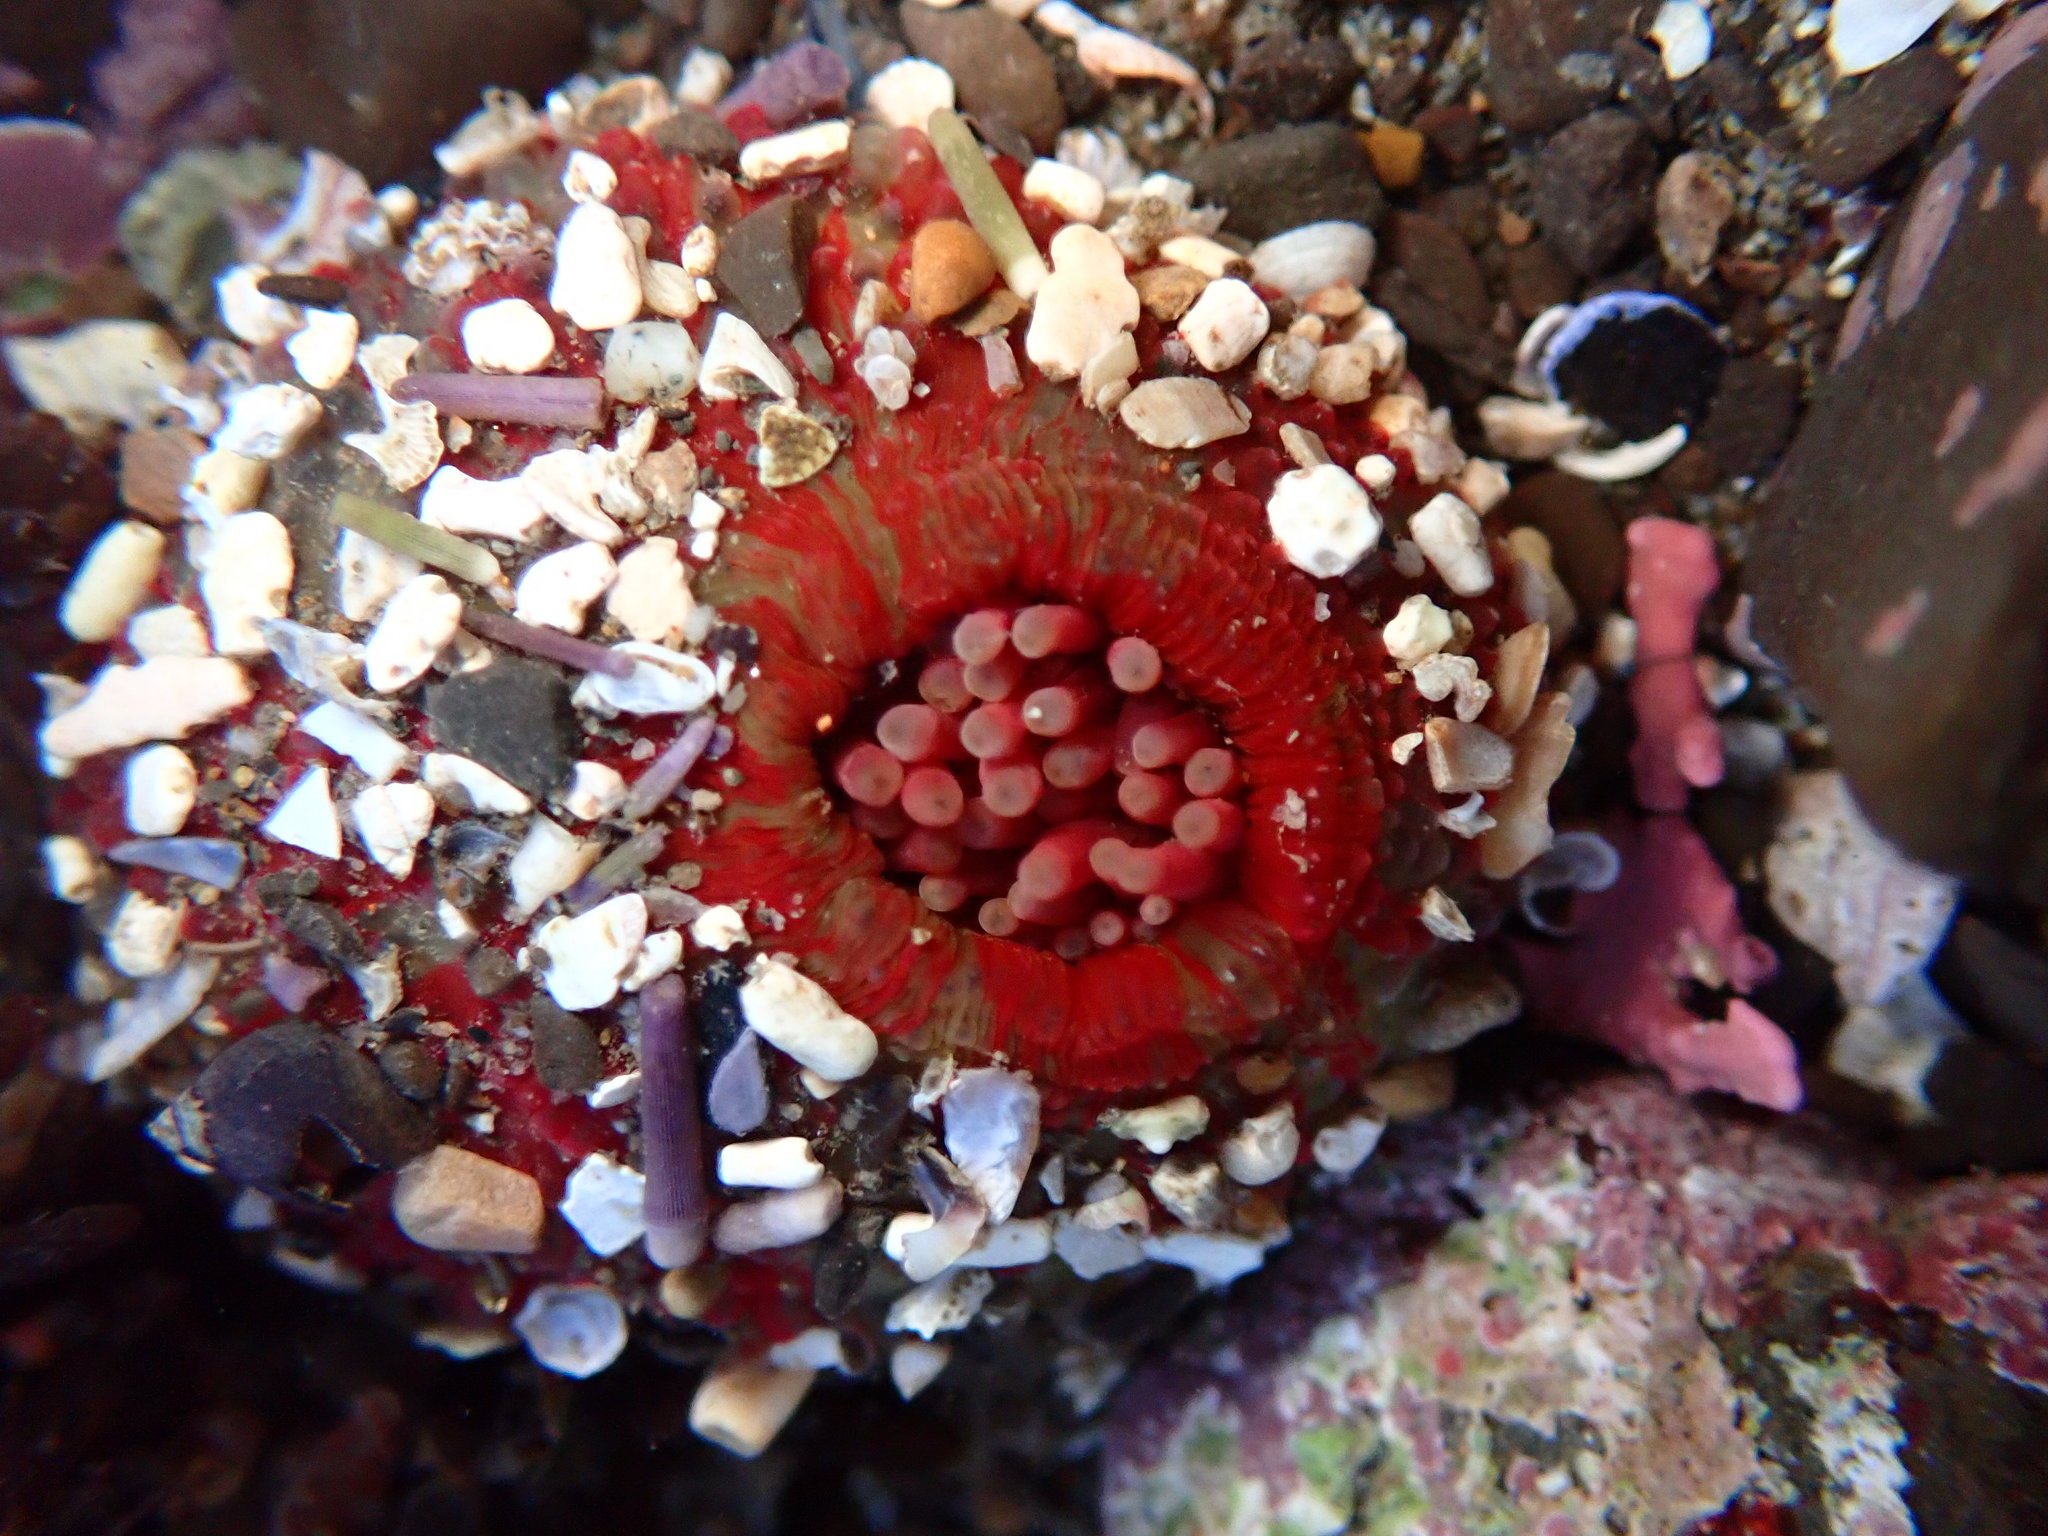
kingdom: Animalia
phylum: Cnidaria
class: Anthozoa
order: Actiniaria
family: Actiniidae
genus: Urticina
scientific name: Urticina grebelnyi
